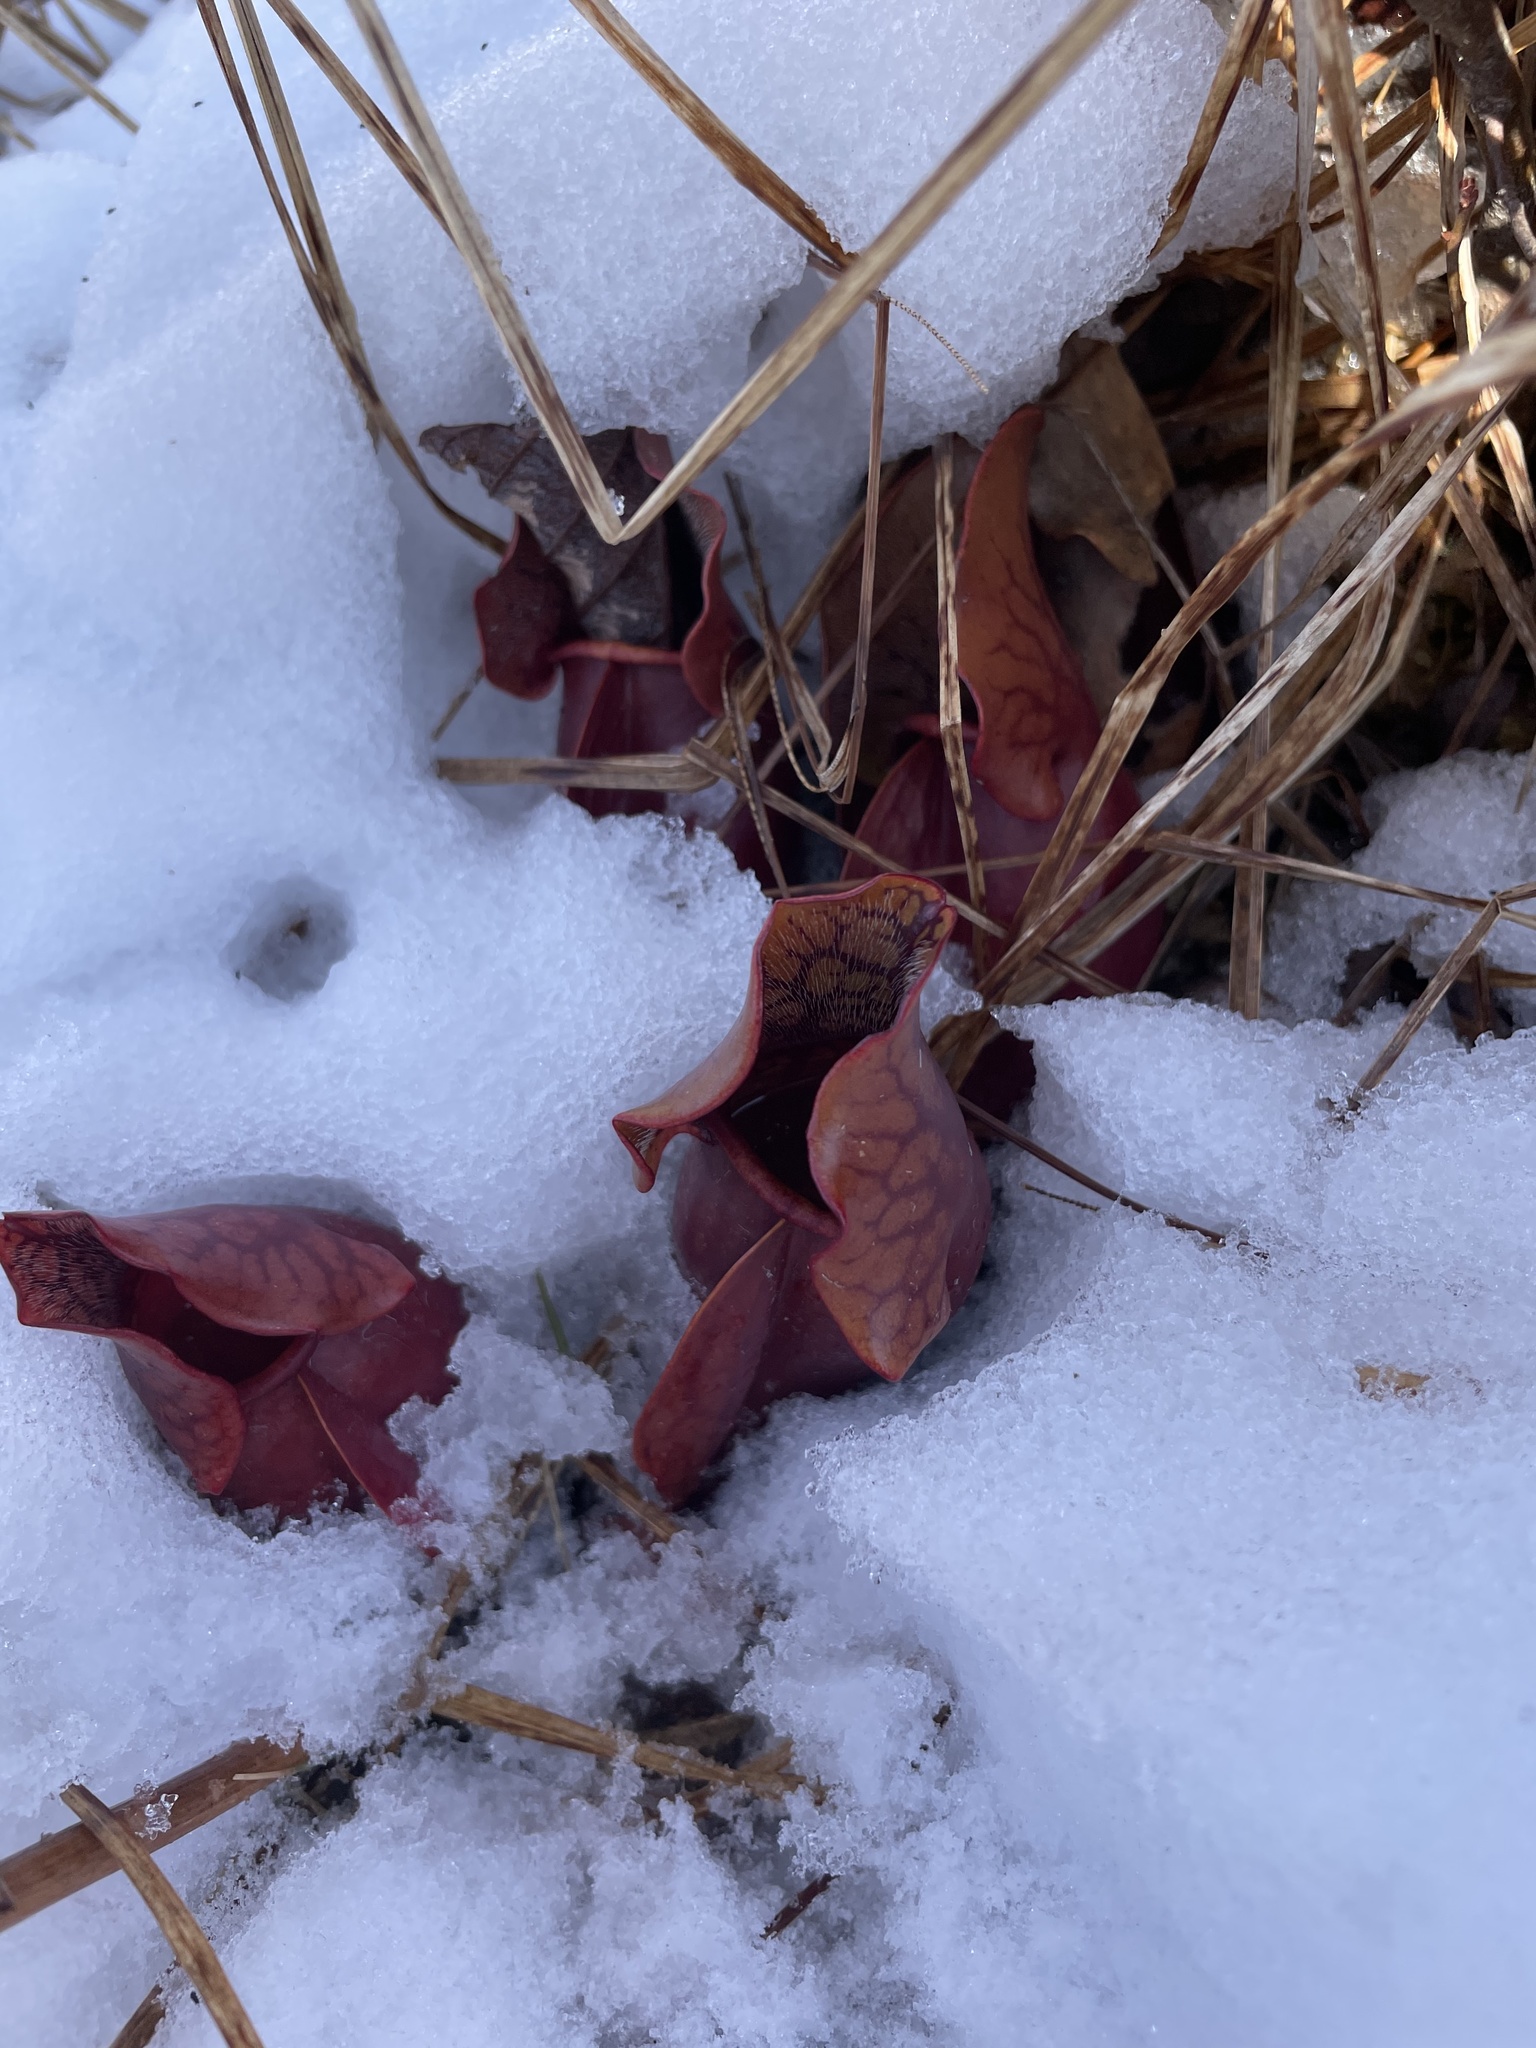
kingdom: Plantae
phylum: Tracheophyta
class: Magnoliopsida
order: Ericales
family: Sarraceniaceae
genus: Sarracenia
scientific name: Sarracenia purpurea
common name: Pitcherplant
